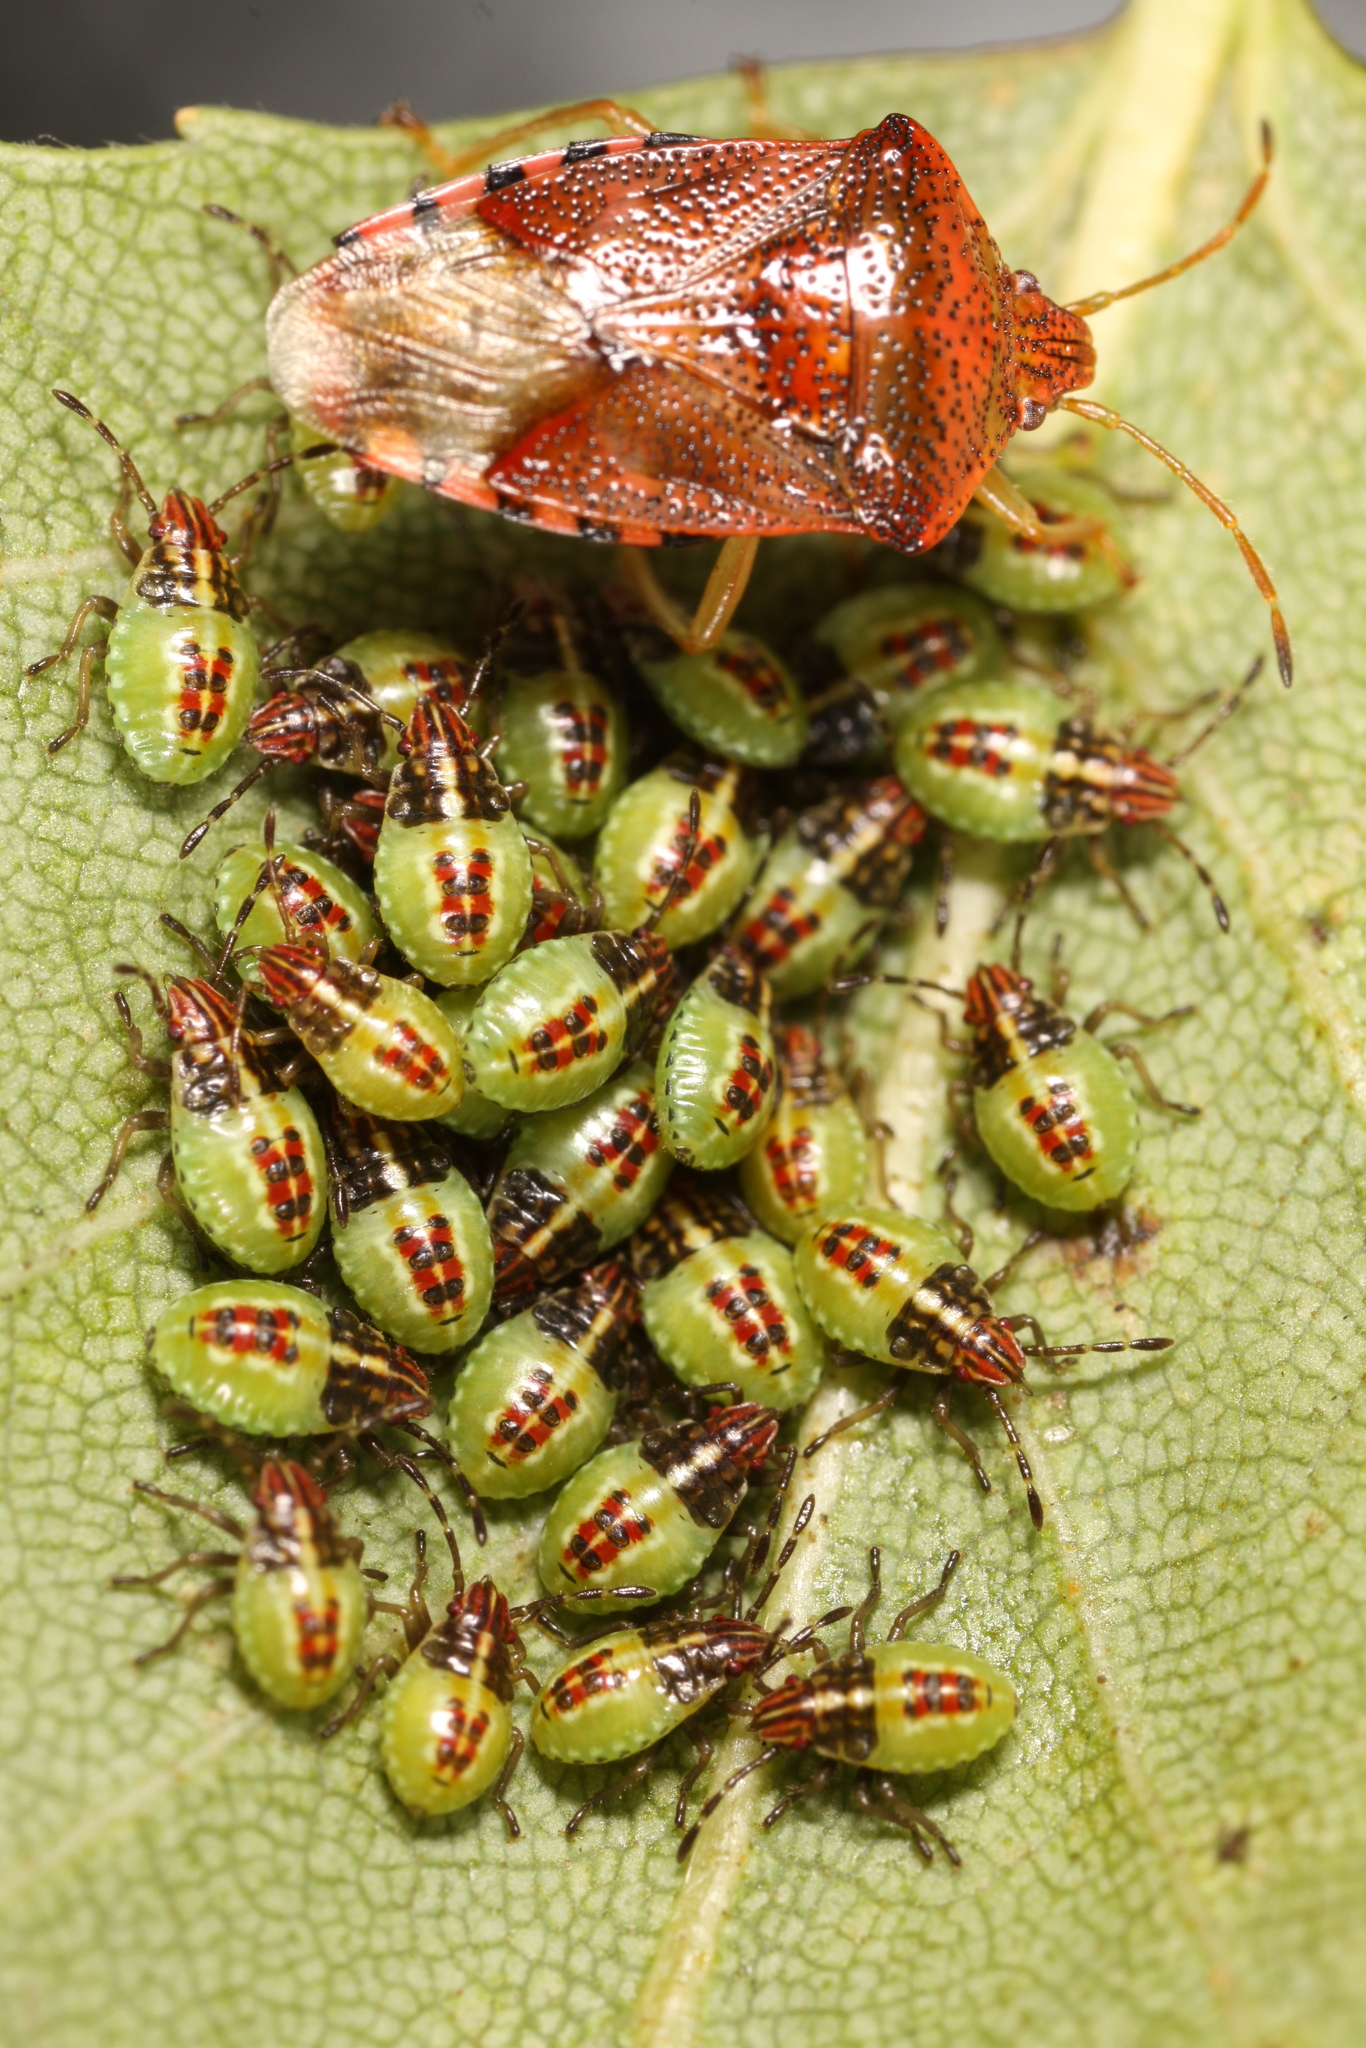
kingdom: Animalia
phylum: Arthropoda
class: Insecta
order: Hemiptera
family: Acanthosomatidae
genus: Elasmucha
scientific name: Elasmucha grisea
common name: Parent bug
